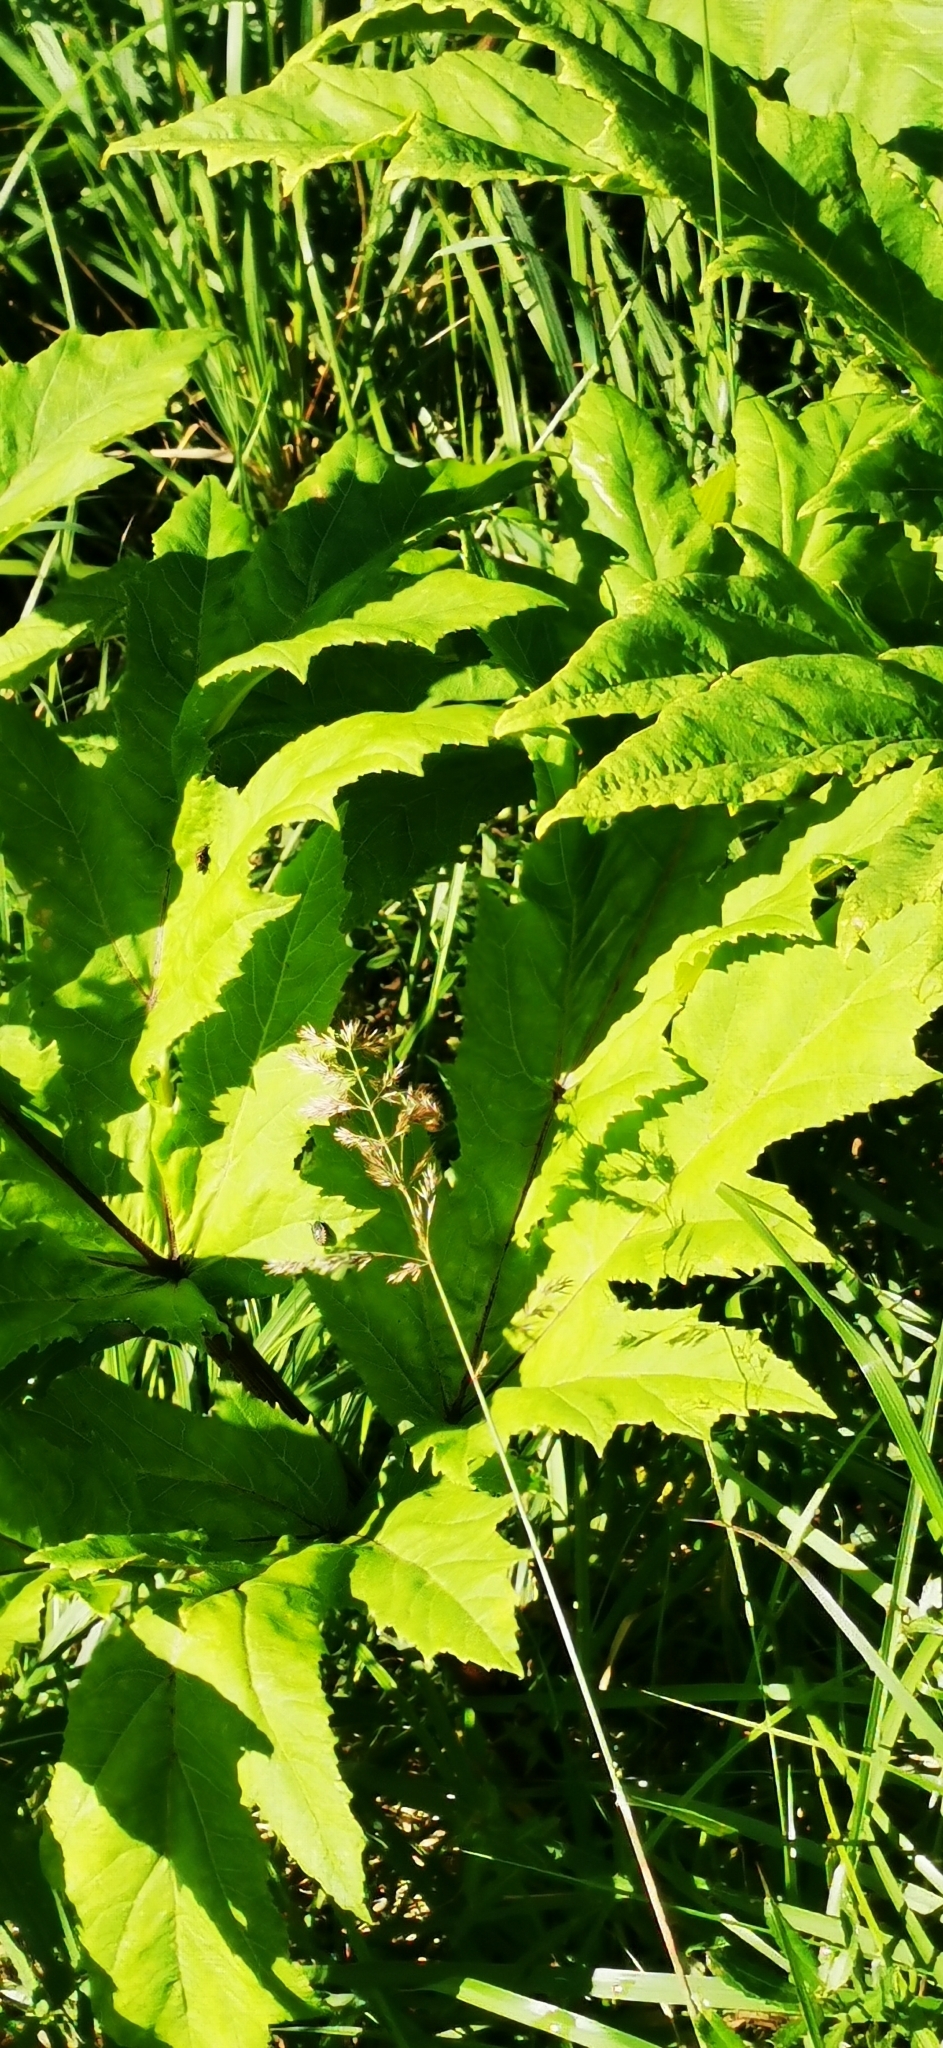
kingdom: Plantae
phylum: Tracheophyta
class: Magnoliopsida
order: Apiales
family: Apiaceae
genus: Heracleum
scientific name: Heracleum sosnowskyi
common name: Sosnowsky's hogweed
